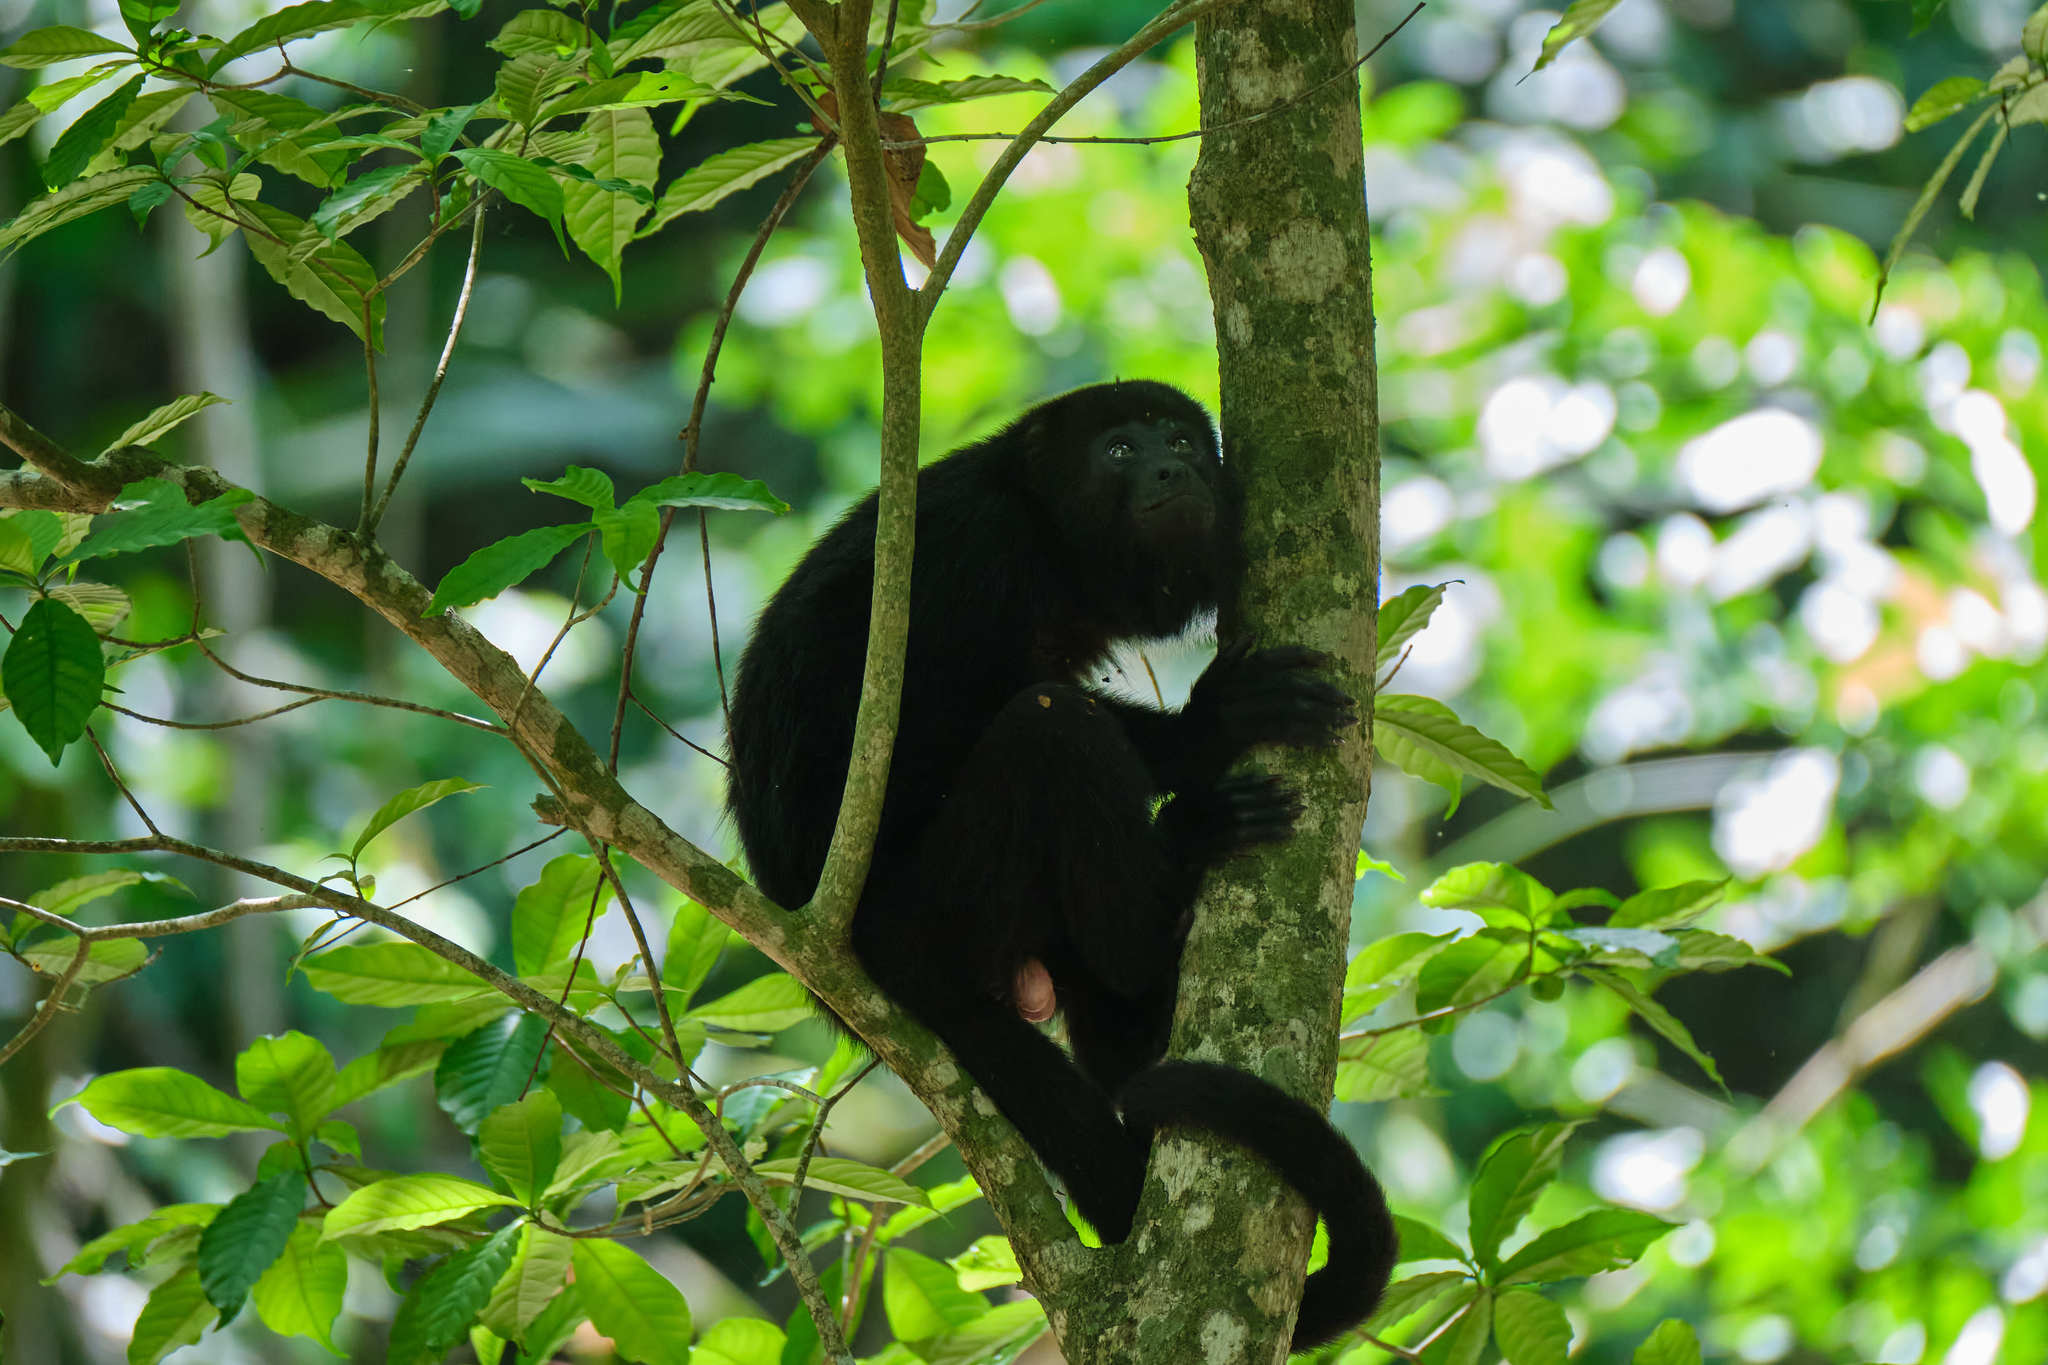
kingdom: Animalia
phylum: Chordata
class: Mammalia
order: Primates
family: Atelidae
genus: Alouatta
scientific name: Alouatta pigra
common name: Guatemalan black howler
